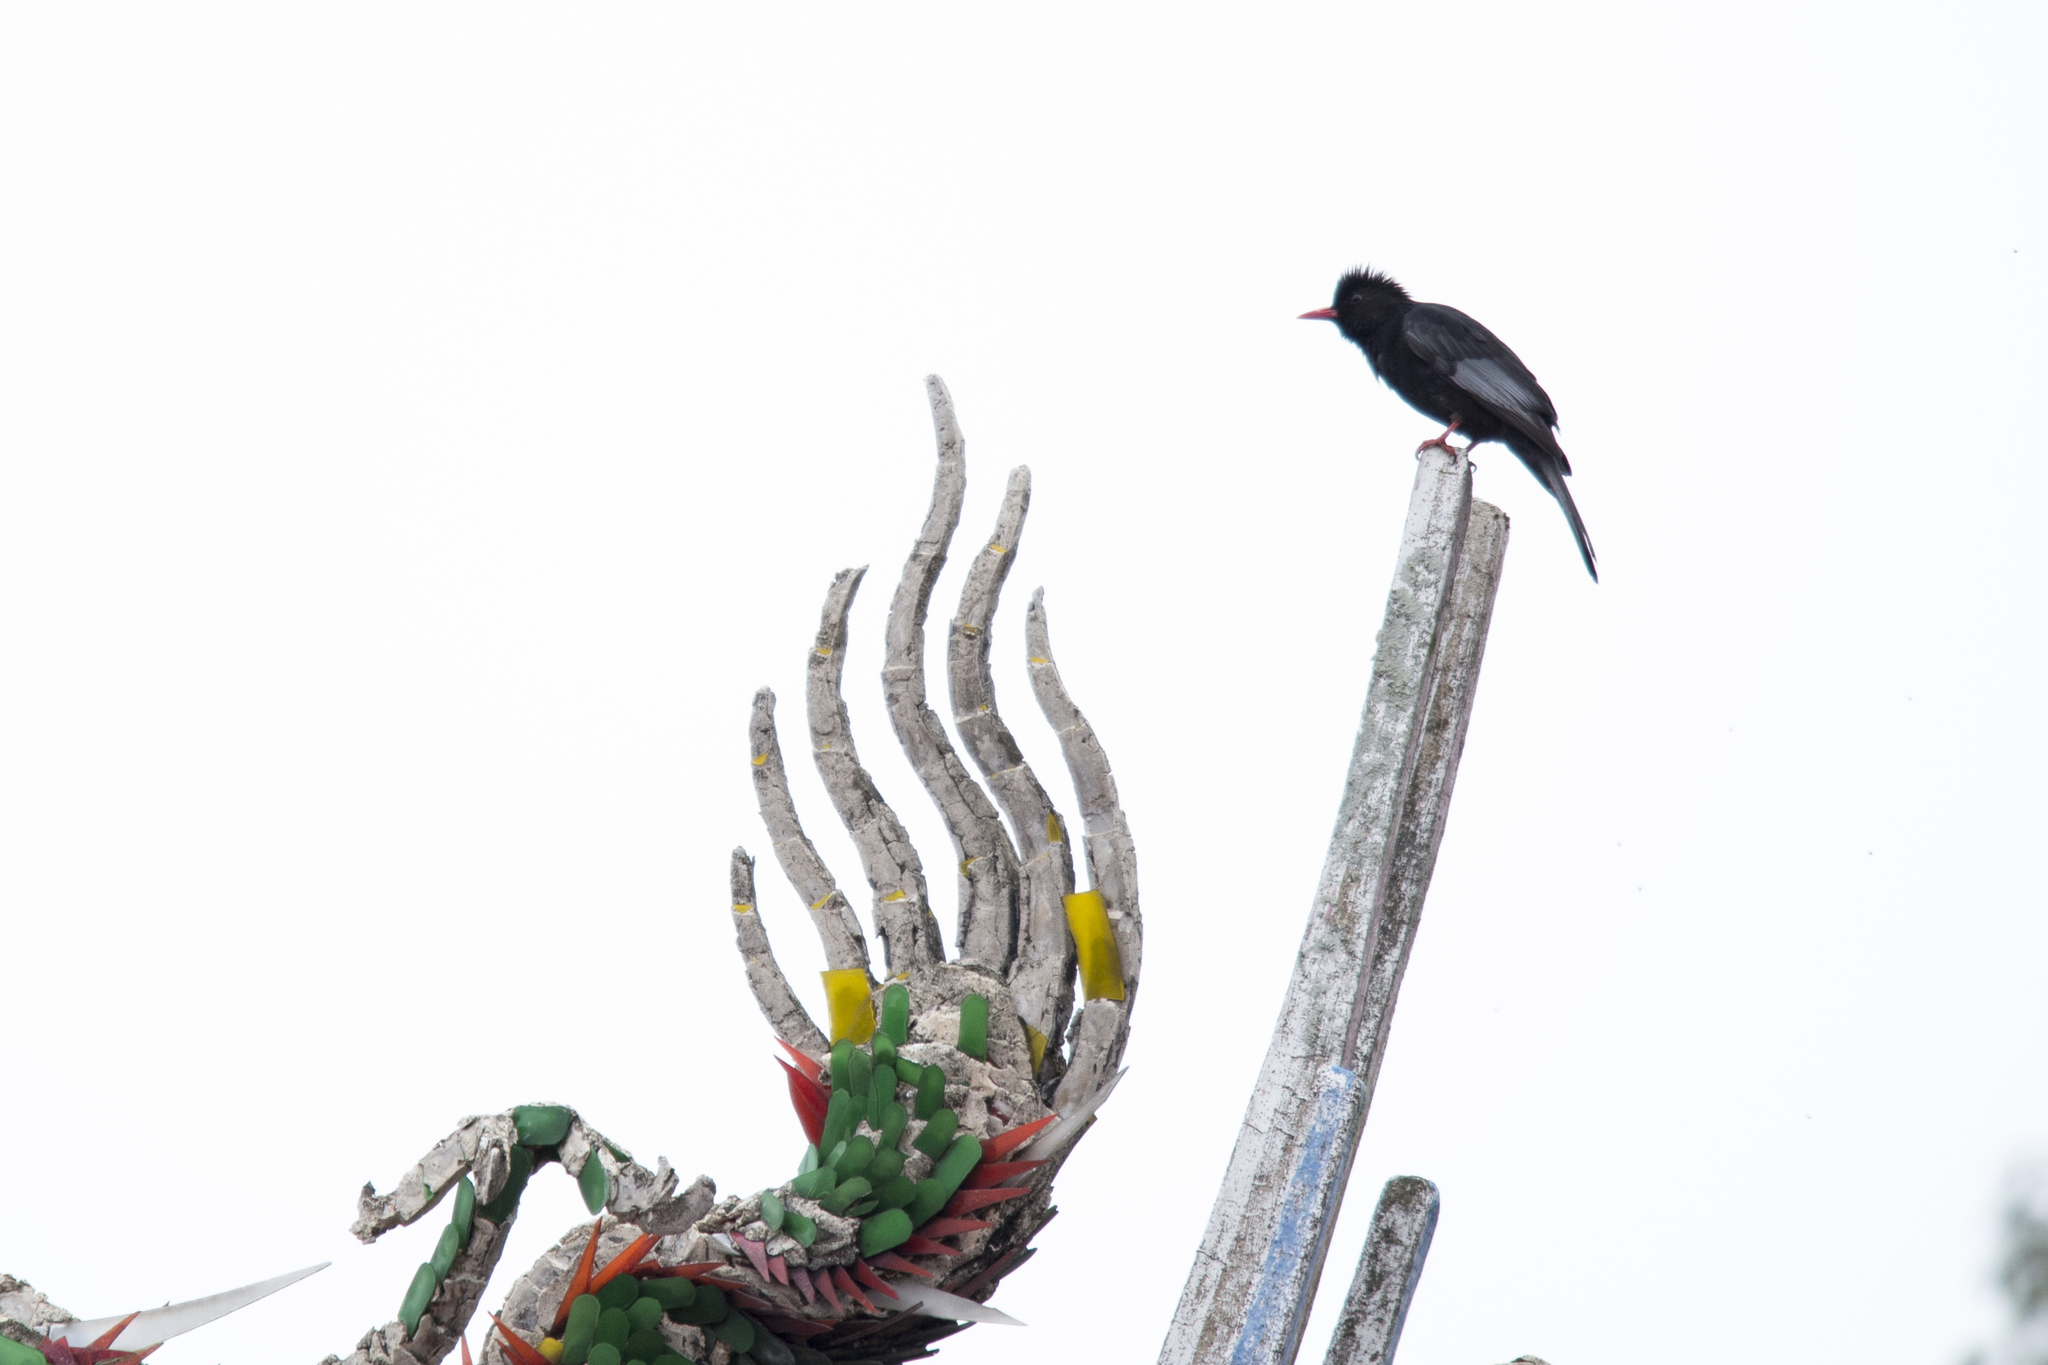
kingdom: Animalia
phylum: Chordata
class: Aves
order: Passeriformes
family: Pycnonotidae
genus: Hypsipetes
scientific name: Hypsipetes leucocephalus
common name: Black bulbul
